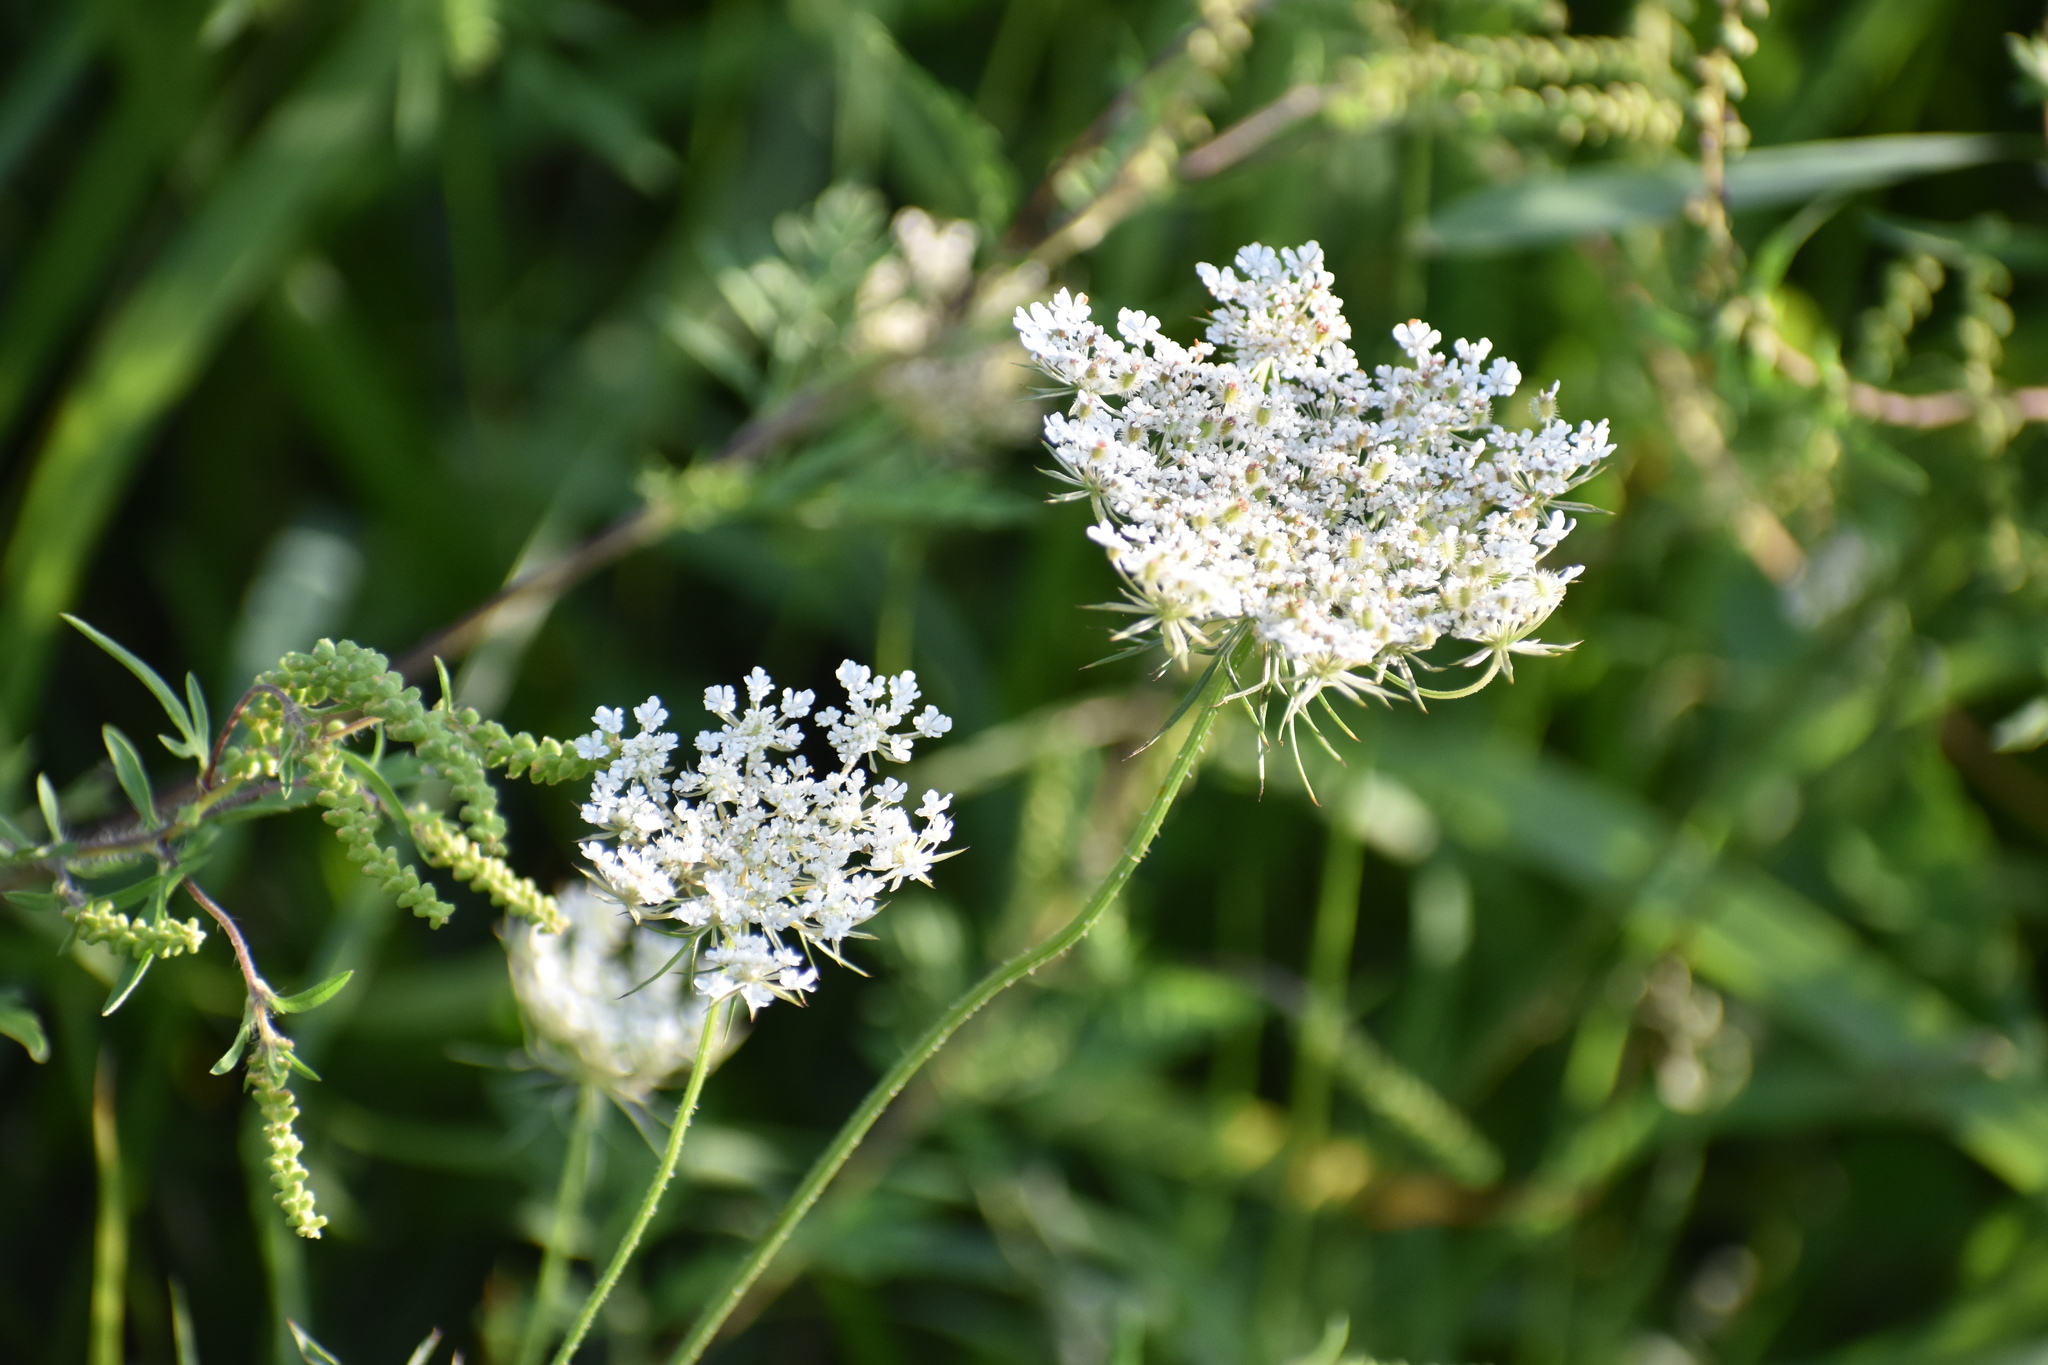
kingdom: Plantae
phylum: Tracheophyta
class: Magnoliopsida
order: Apiales
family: Apiaceae
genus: Daucus
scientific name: Daucus carota
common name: Wild carrot
